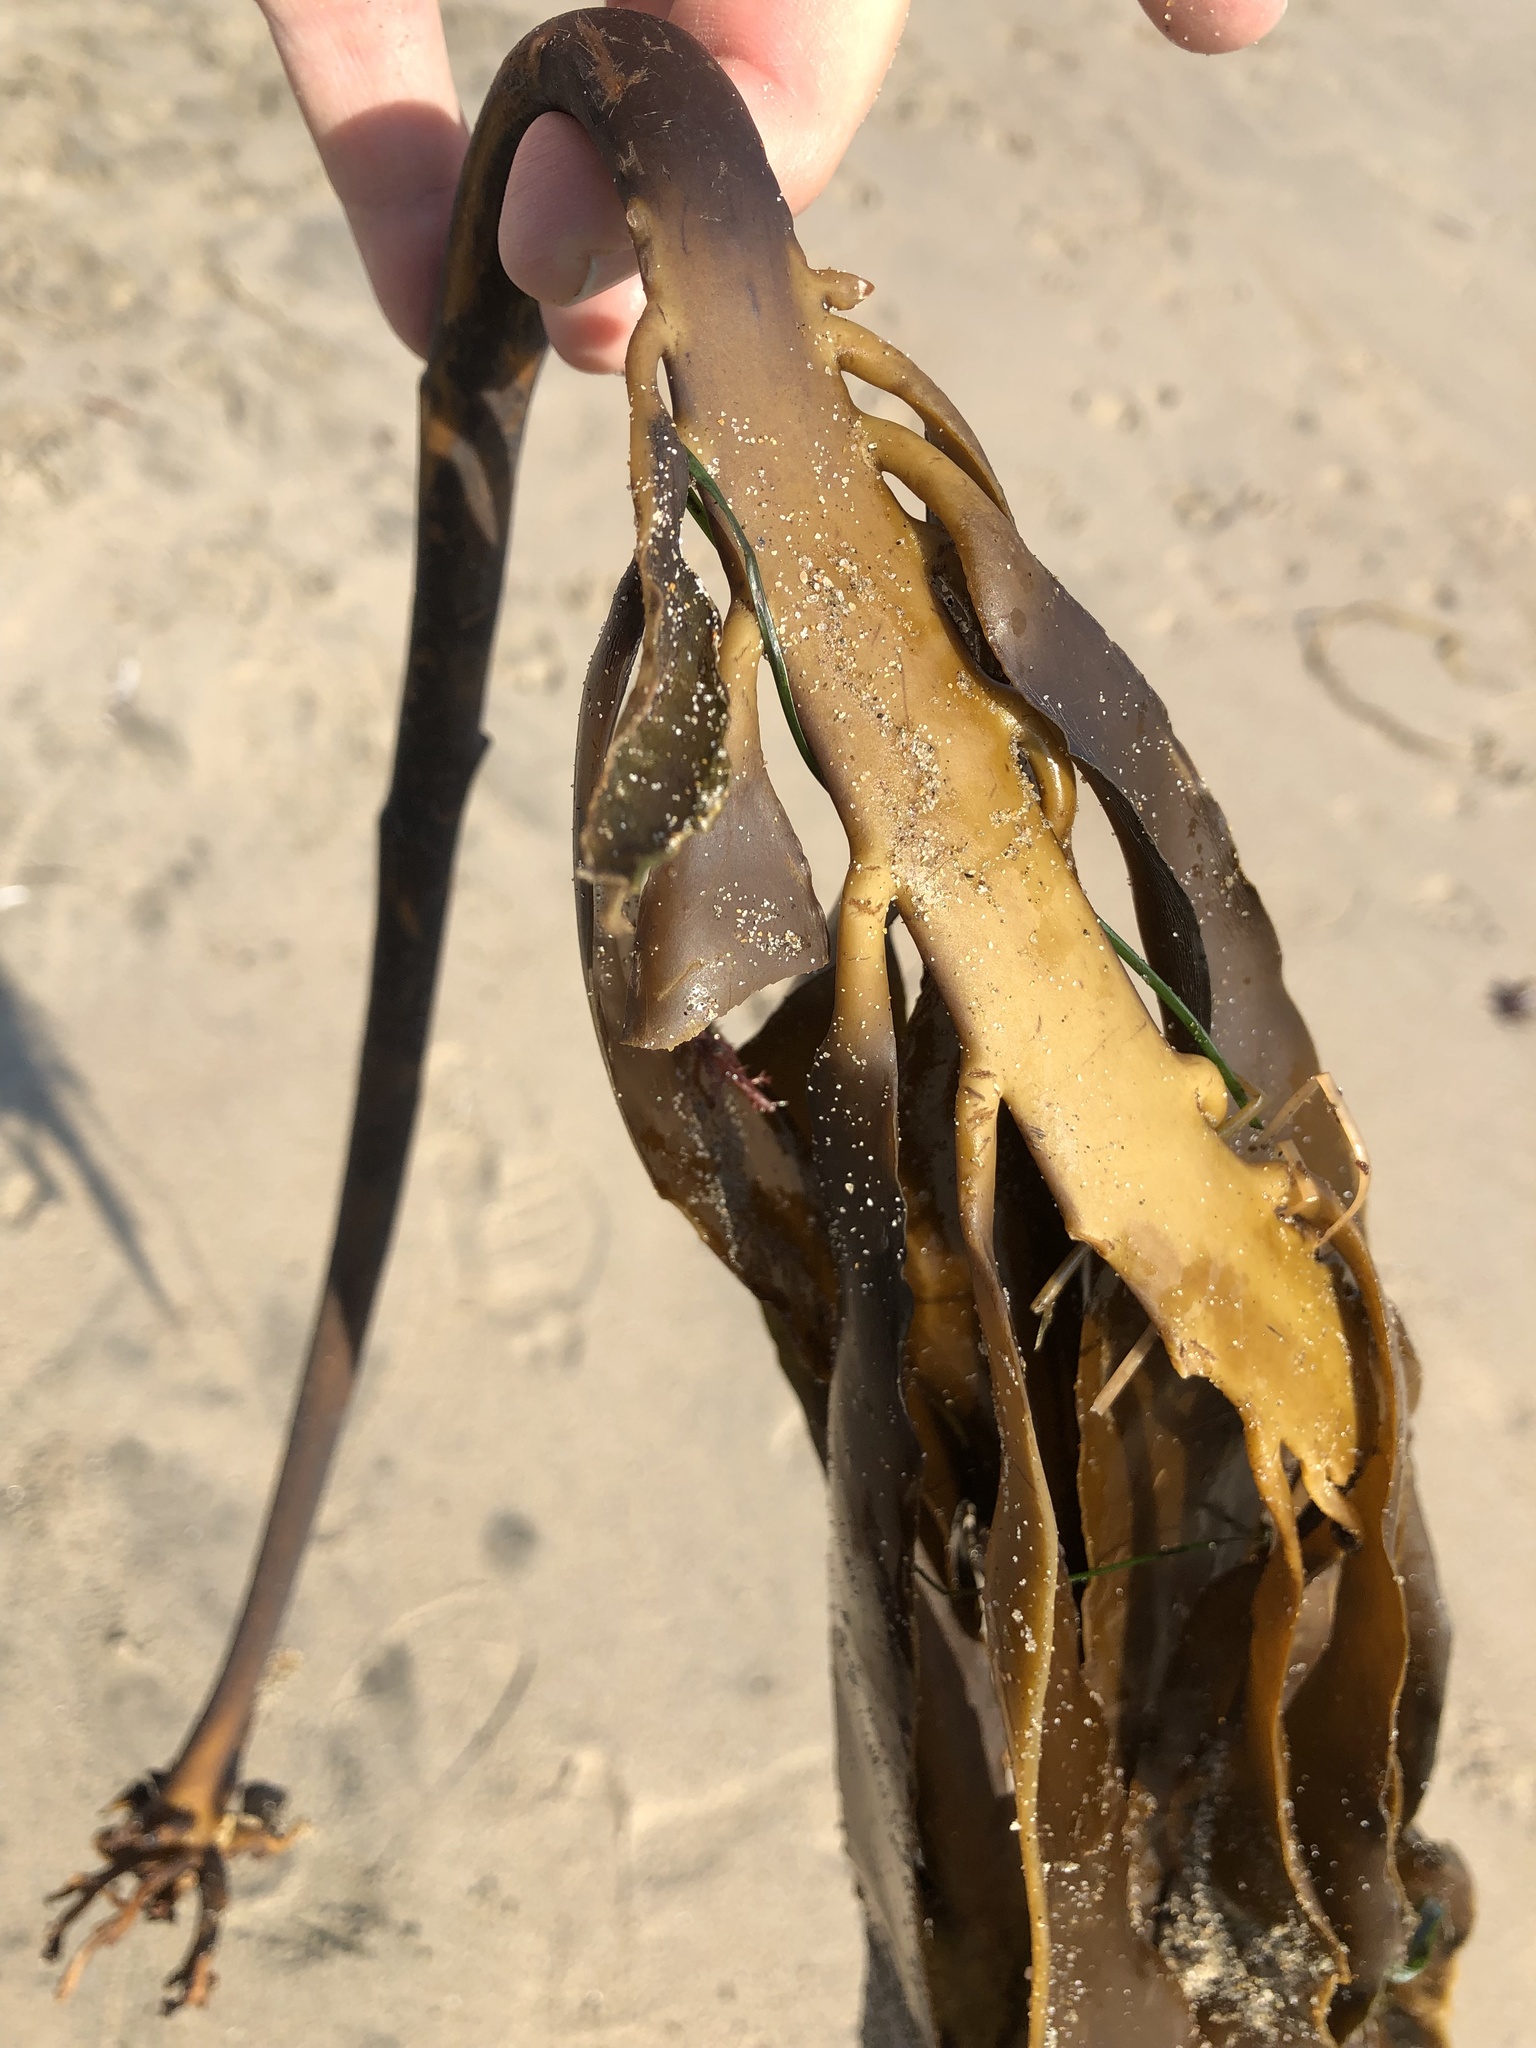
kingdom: Chromista
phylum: Ochrophyta
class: Phaeophyceae
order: Laminariales
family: Alariaceae
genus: Pterygophora
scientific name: Pterygophora californica
